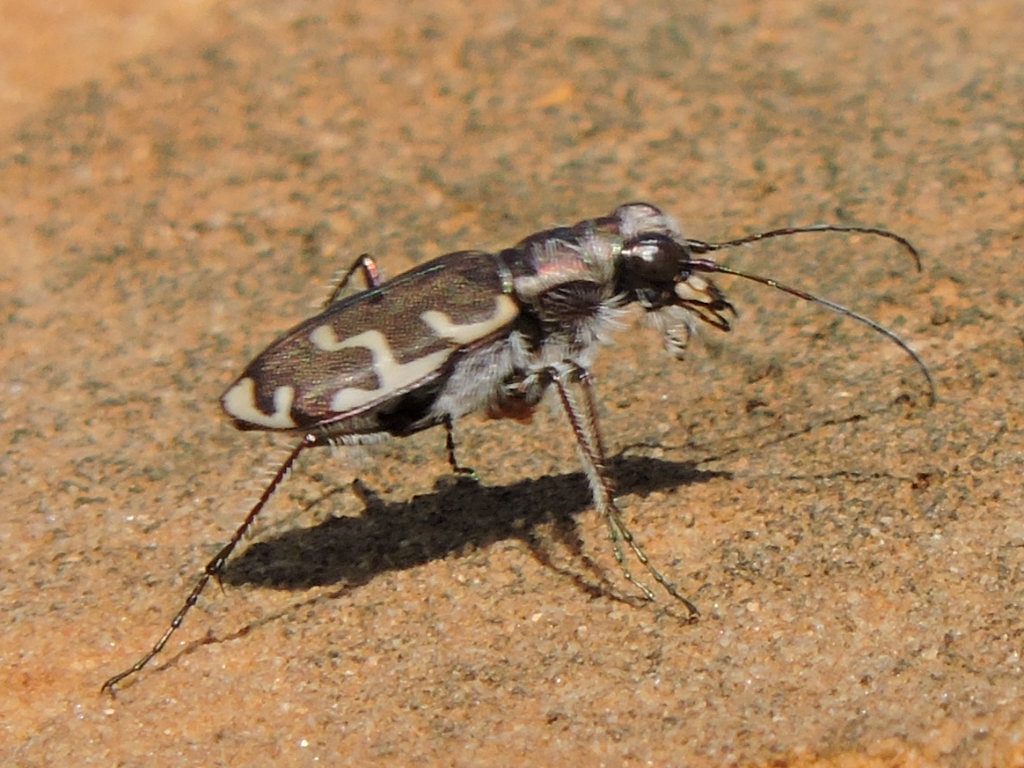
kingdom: Animalia
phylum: Arthropoda
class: Insecta
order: Coleoptera
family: Carabidae
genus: Cicindela
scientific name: Cicindela repanda
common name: Bronzed tiger beetle
